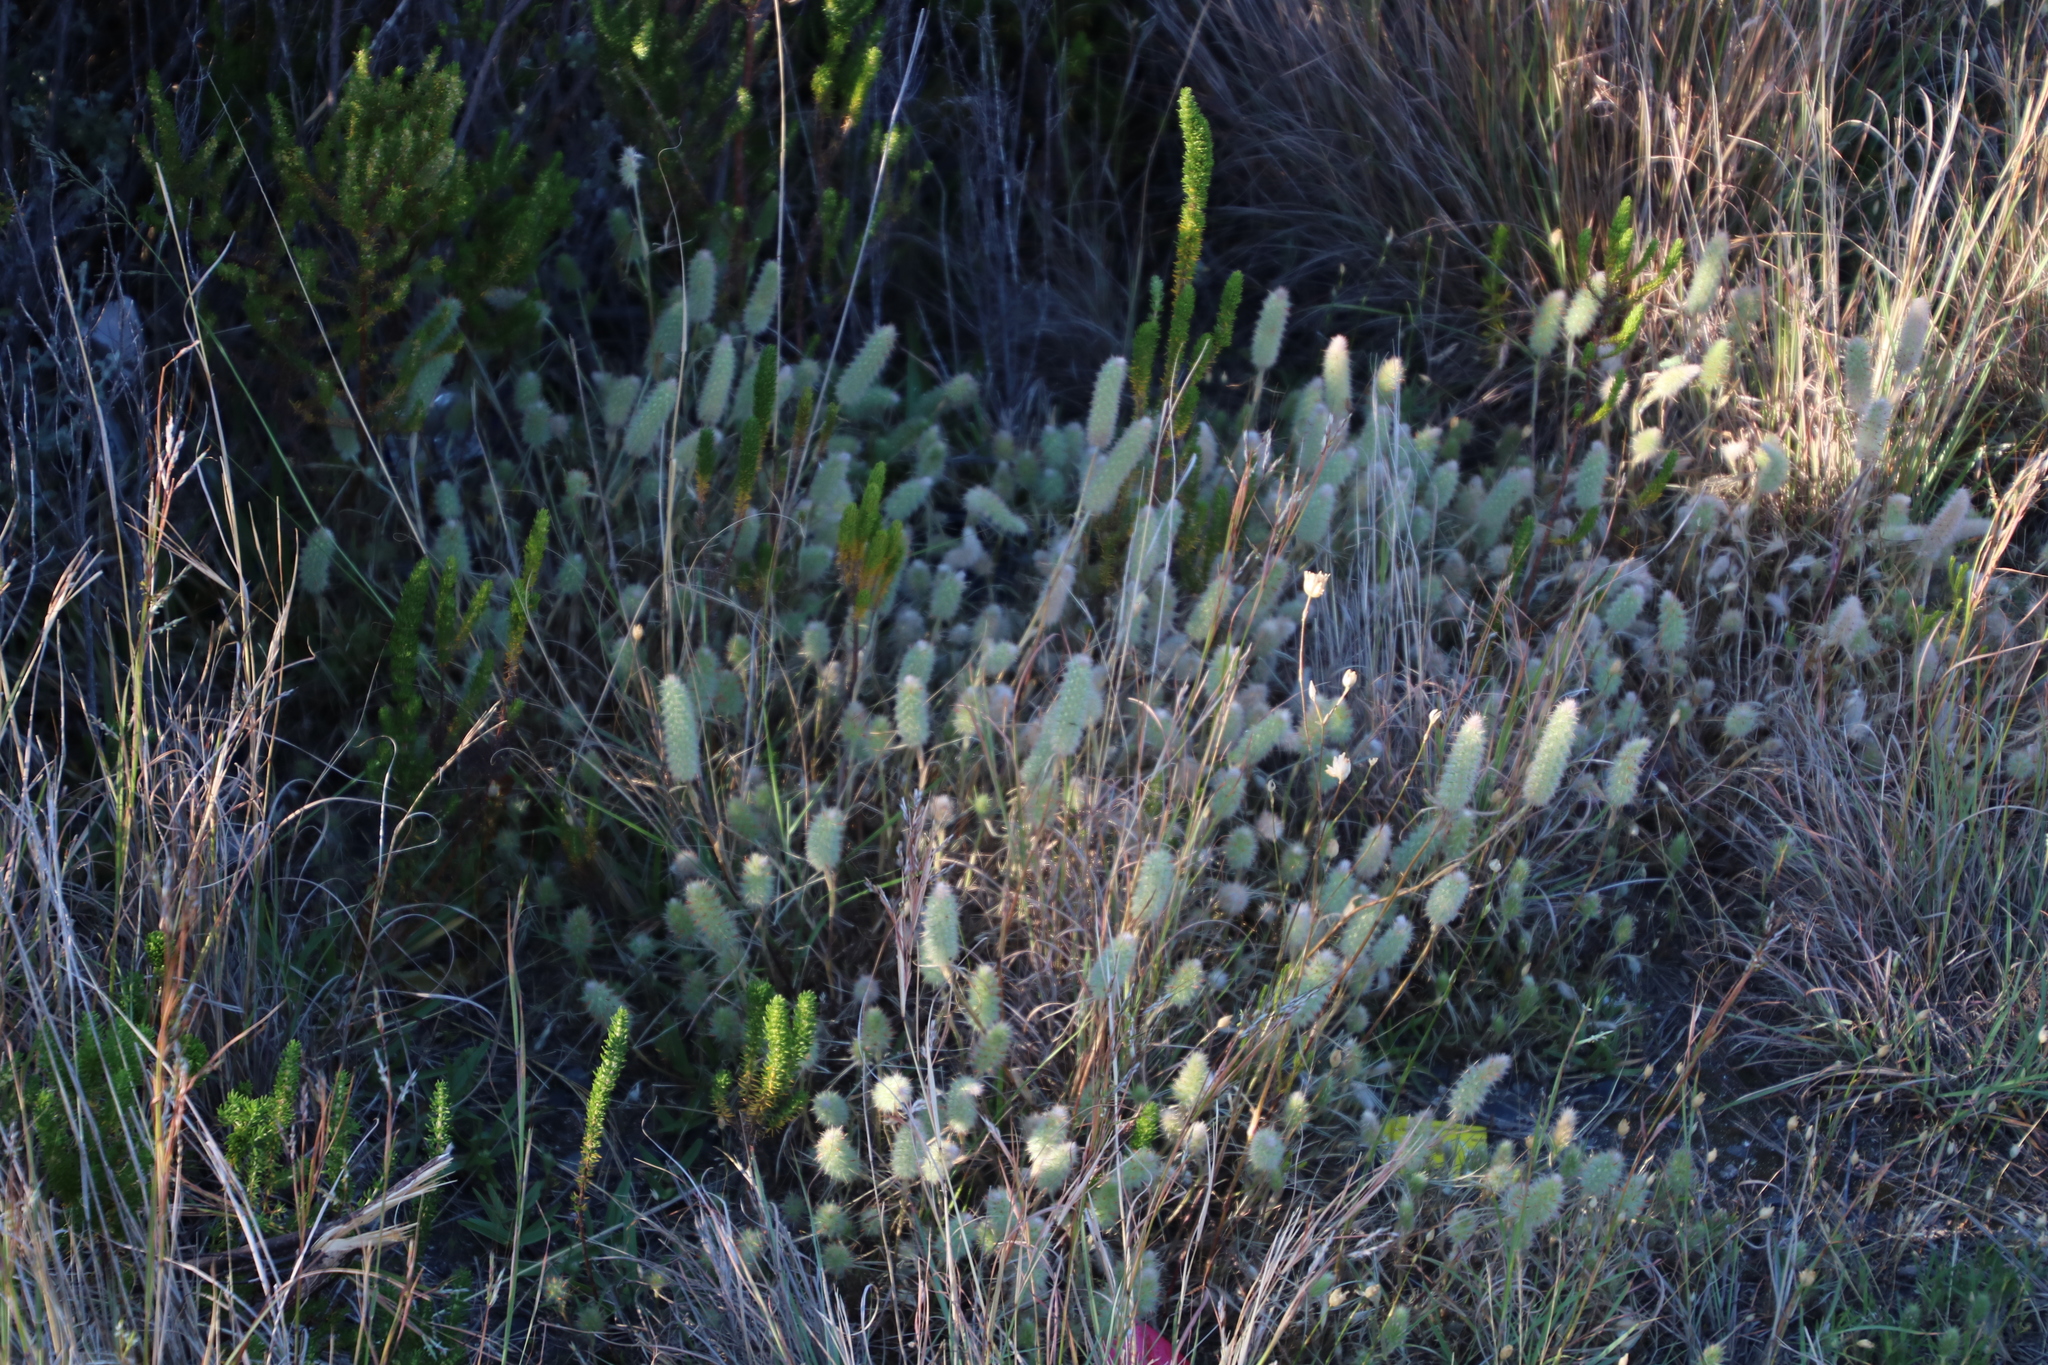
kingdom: Plantae
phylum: Tracheophyta
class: Magnoliopsida
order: Fabales
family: Fabaceae
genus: Trifolium
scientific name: Trifolium angustifolium
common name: Narrow clover
